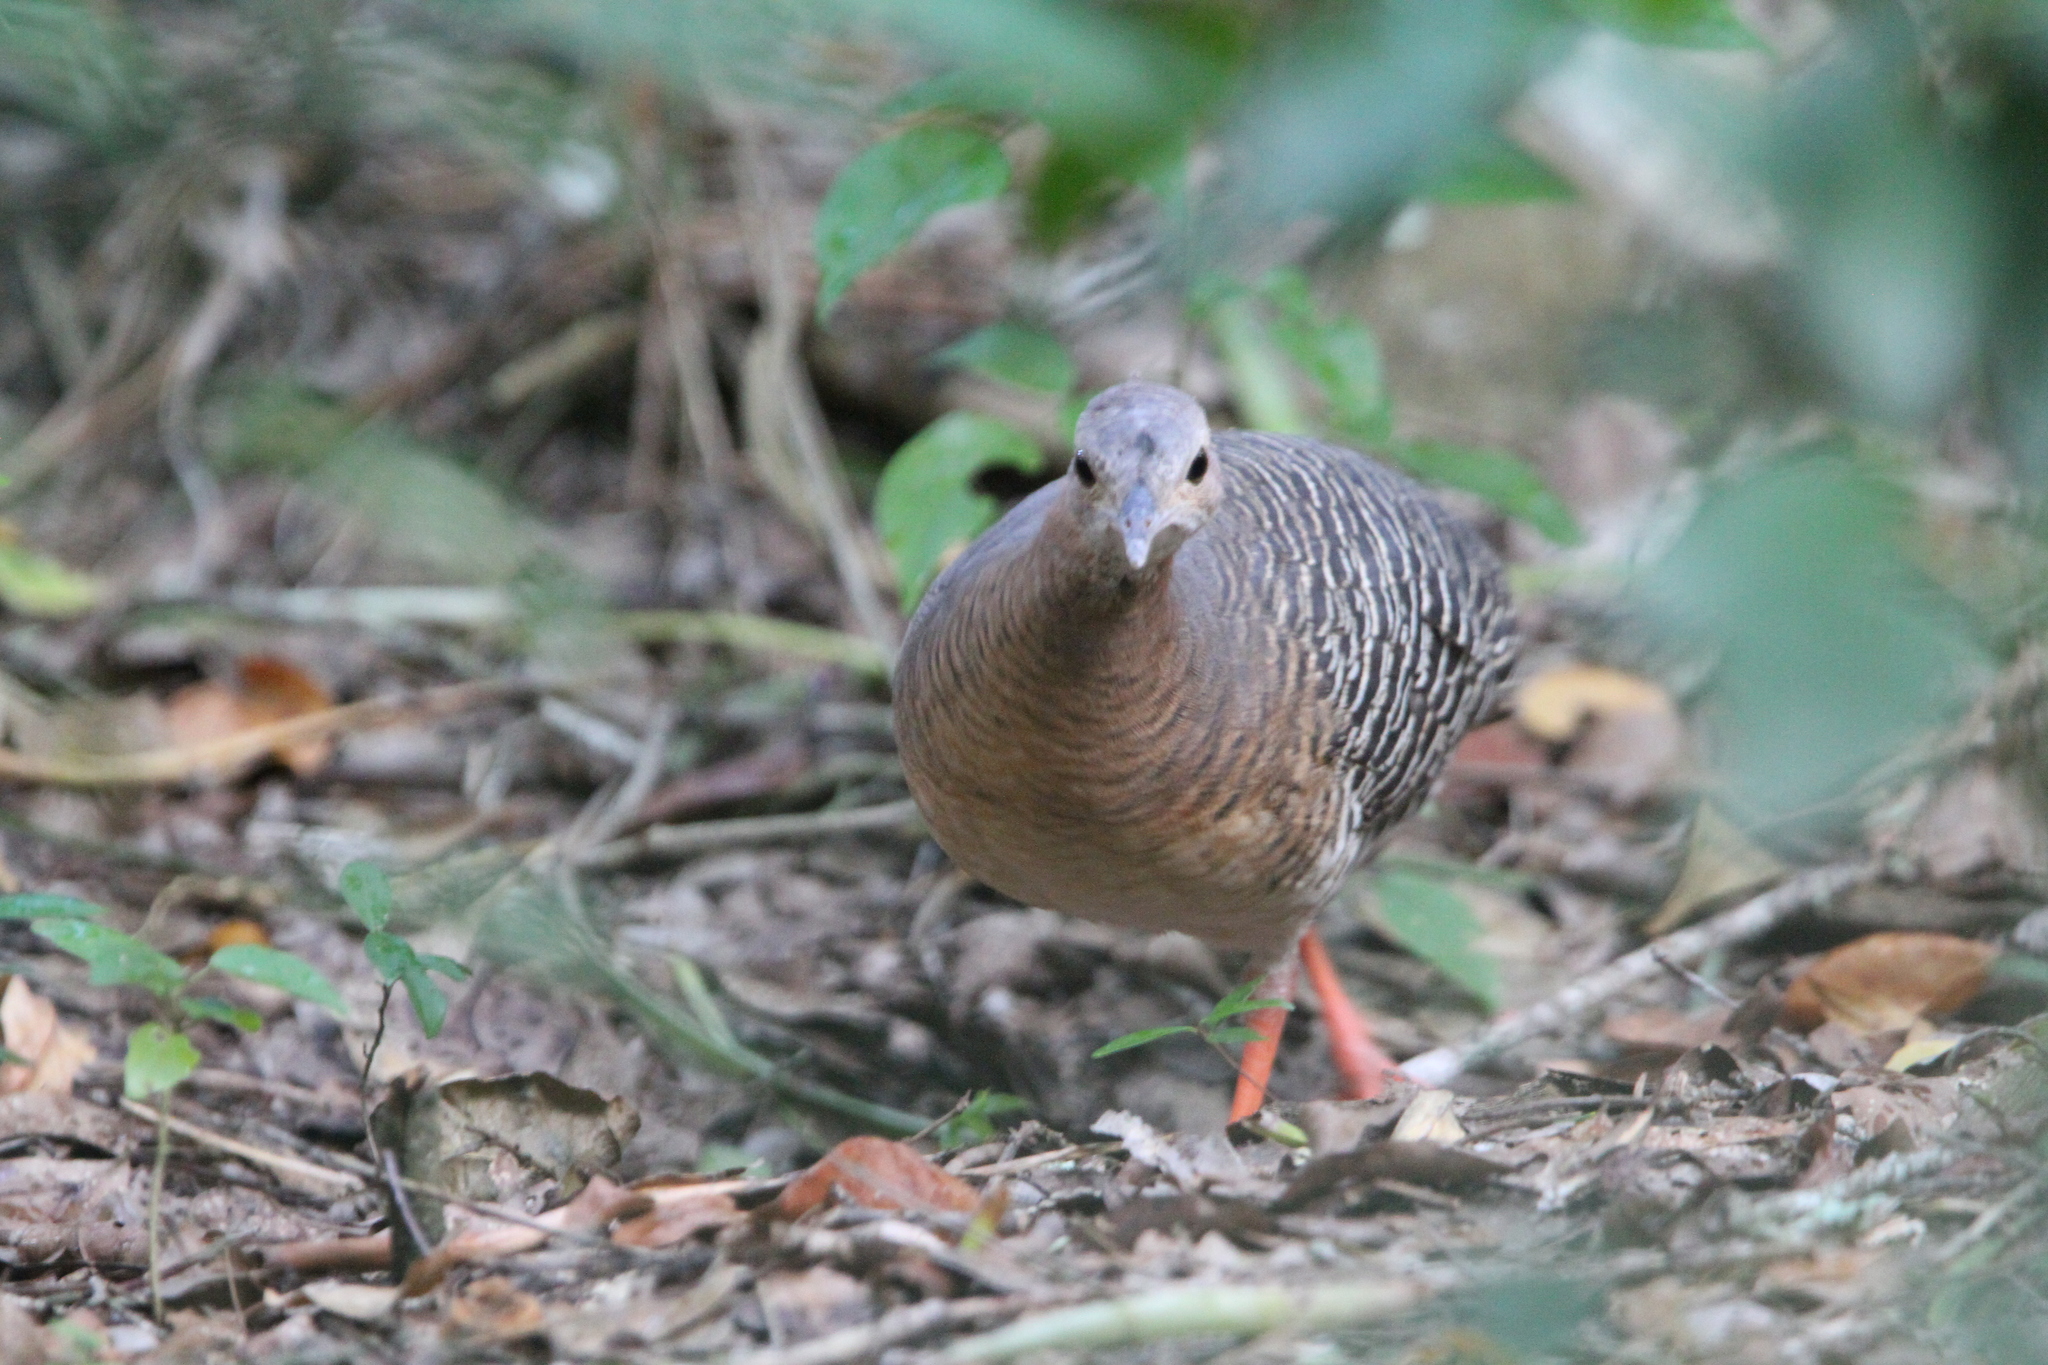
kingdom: Animalia
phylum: Chordata
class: Aves
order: Tinamiformes
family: Tinamidae
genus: Crypturellus
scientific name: Crypturellus cinnamomeus
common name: Thicket tinamou
